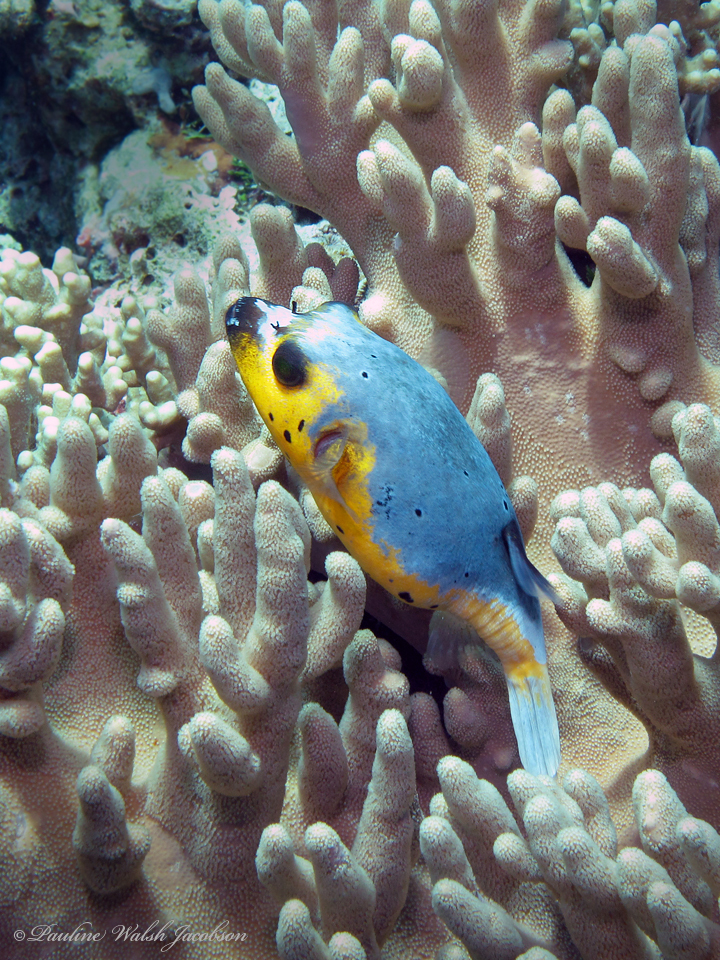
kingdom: Animalia
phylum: Chordata
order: Tetraodontiformes
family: Tetraodontidae
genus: Arothron
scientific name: Arothron nigropunctatus
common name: Black spotted blow fish
